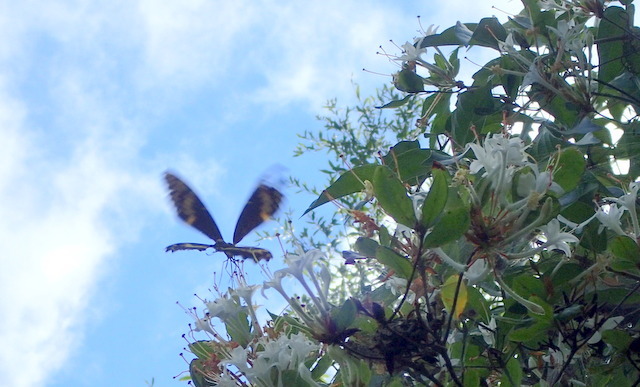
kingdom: Animalia
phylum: Arthropoda
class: Insecta
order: Lepidoptera
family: Papilionidae
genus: Papilio
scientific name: Papilio palamedes
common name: Palamedes swallowtail
